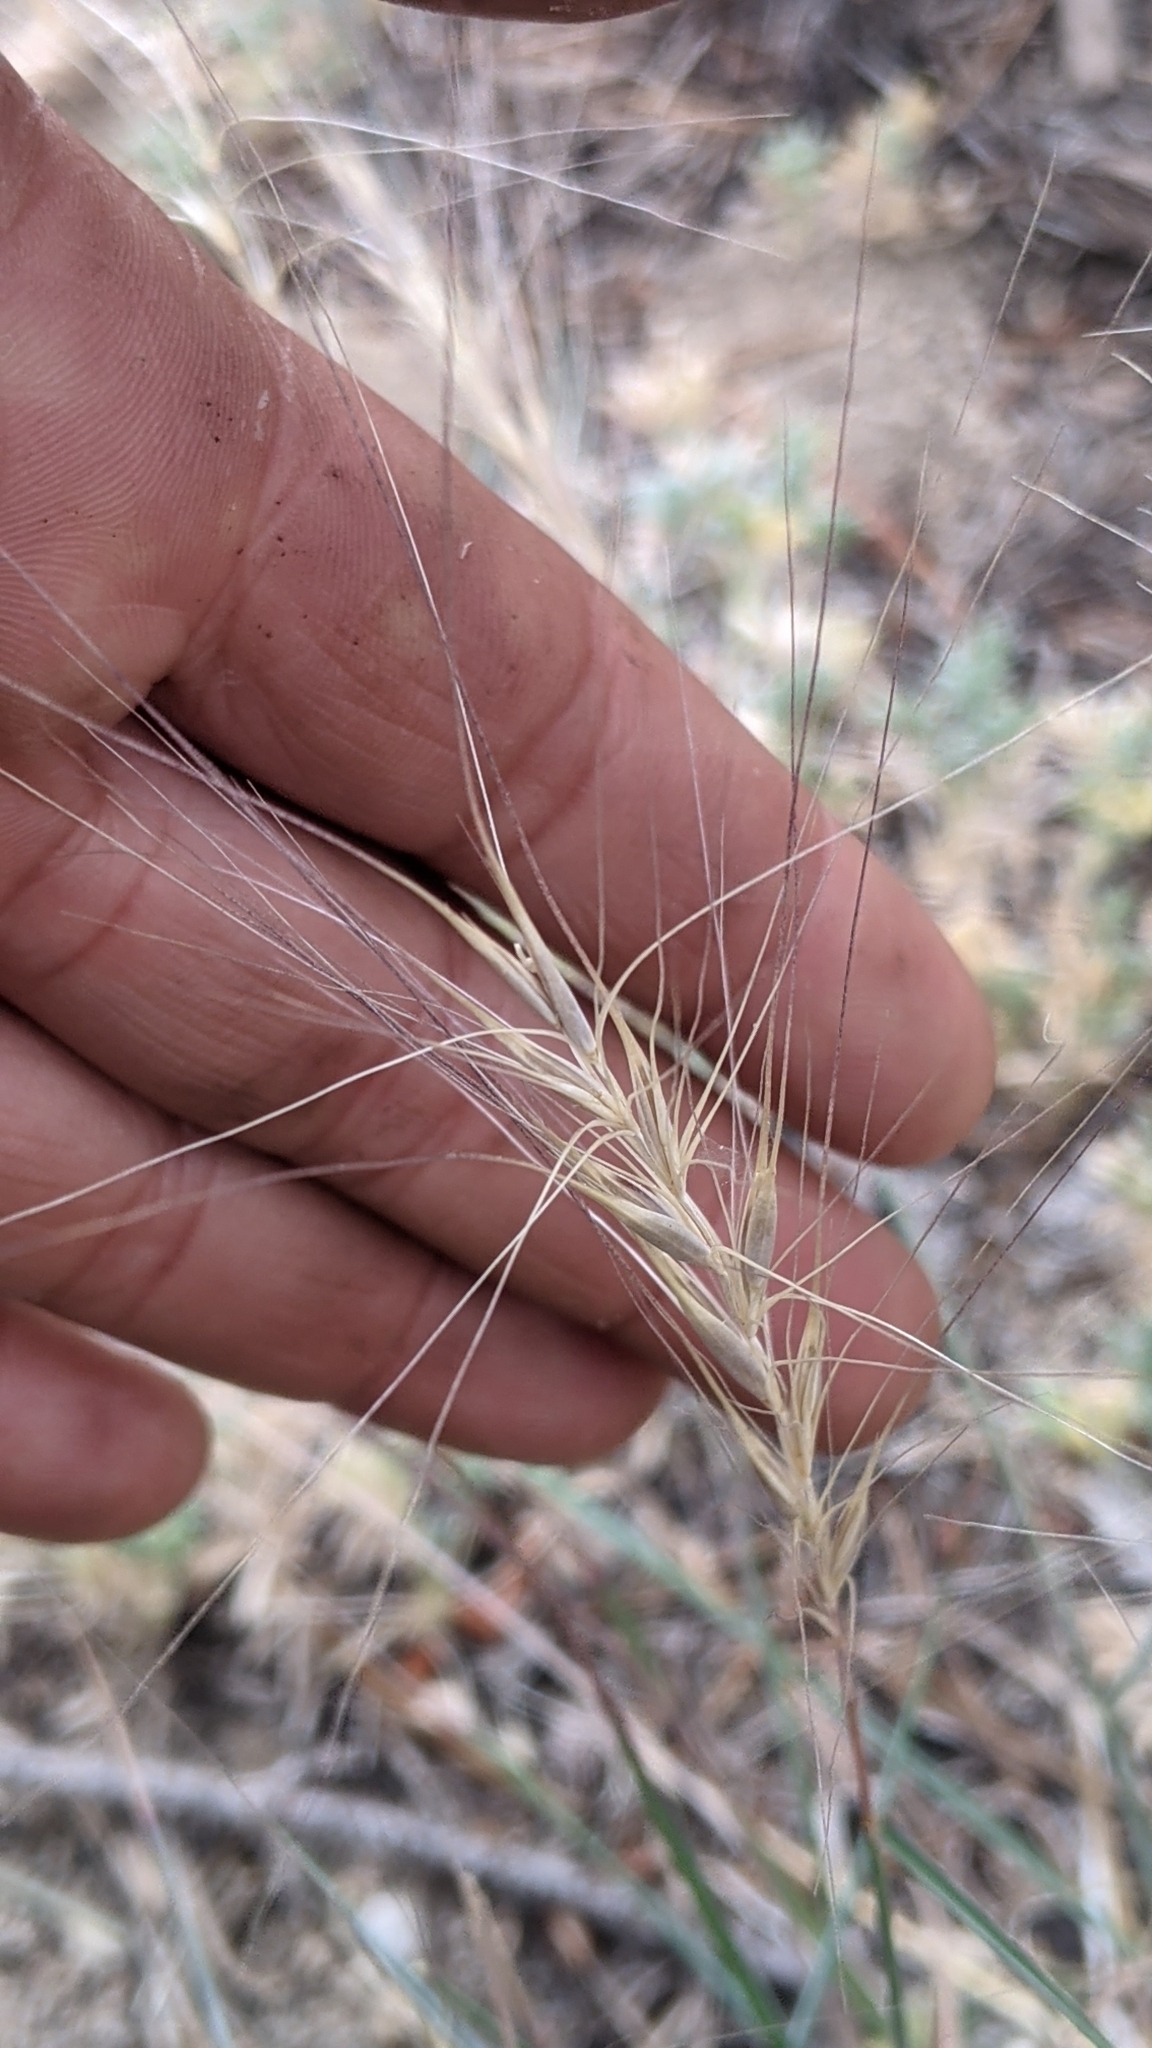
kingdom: Plantae
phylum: Tracheophyta
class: Liliopsida
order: Poales
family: Poaceae
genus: Elymus
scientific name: Elymus elymoides
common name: Bottlebrush squirreltail
